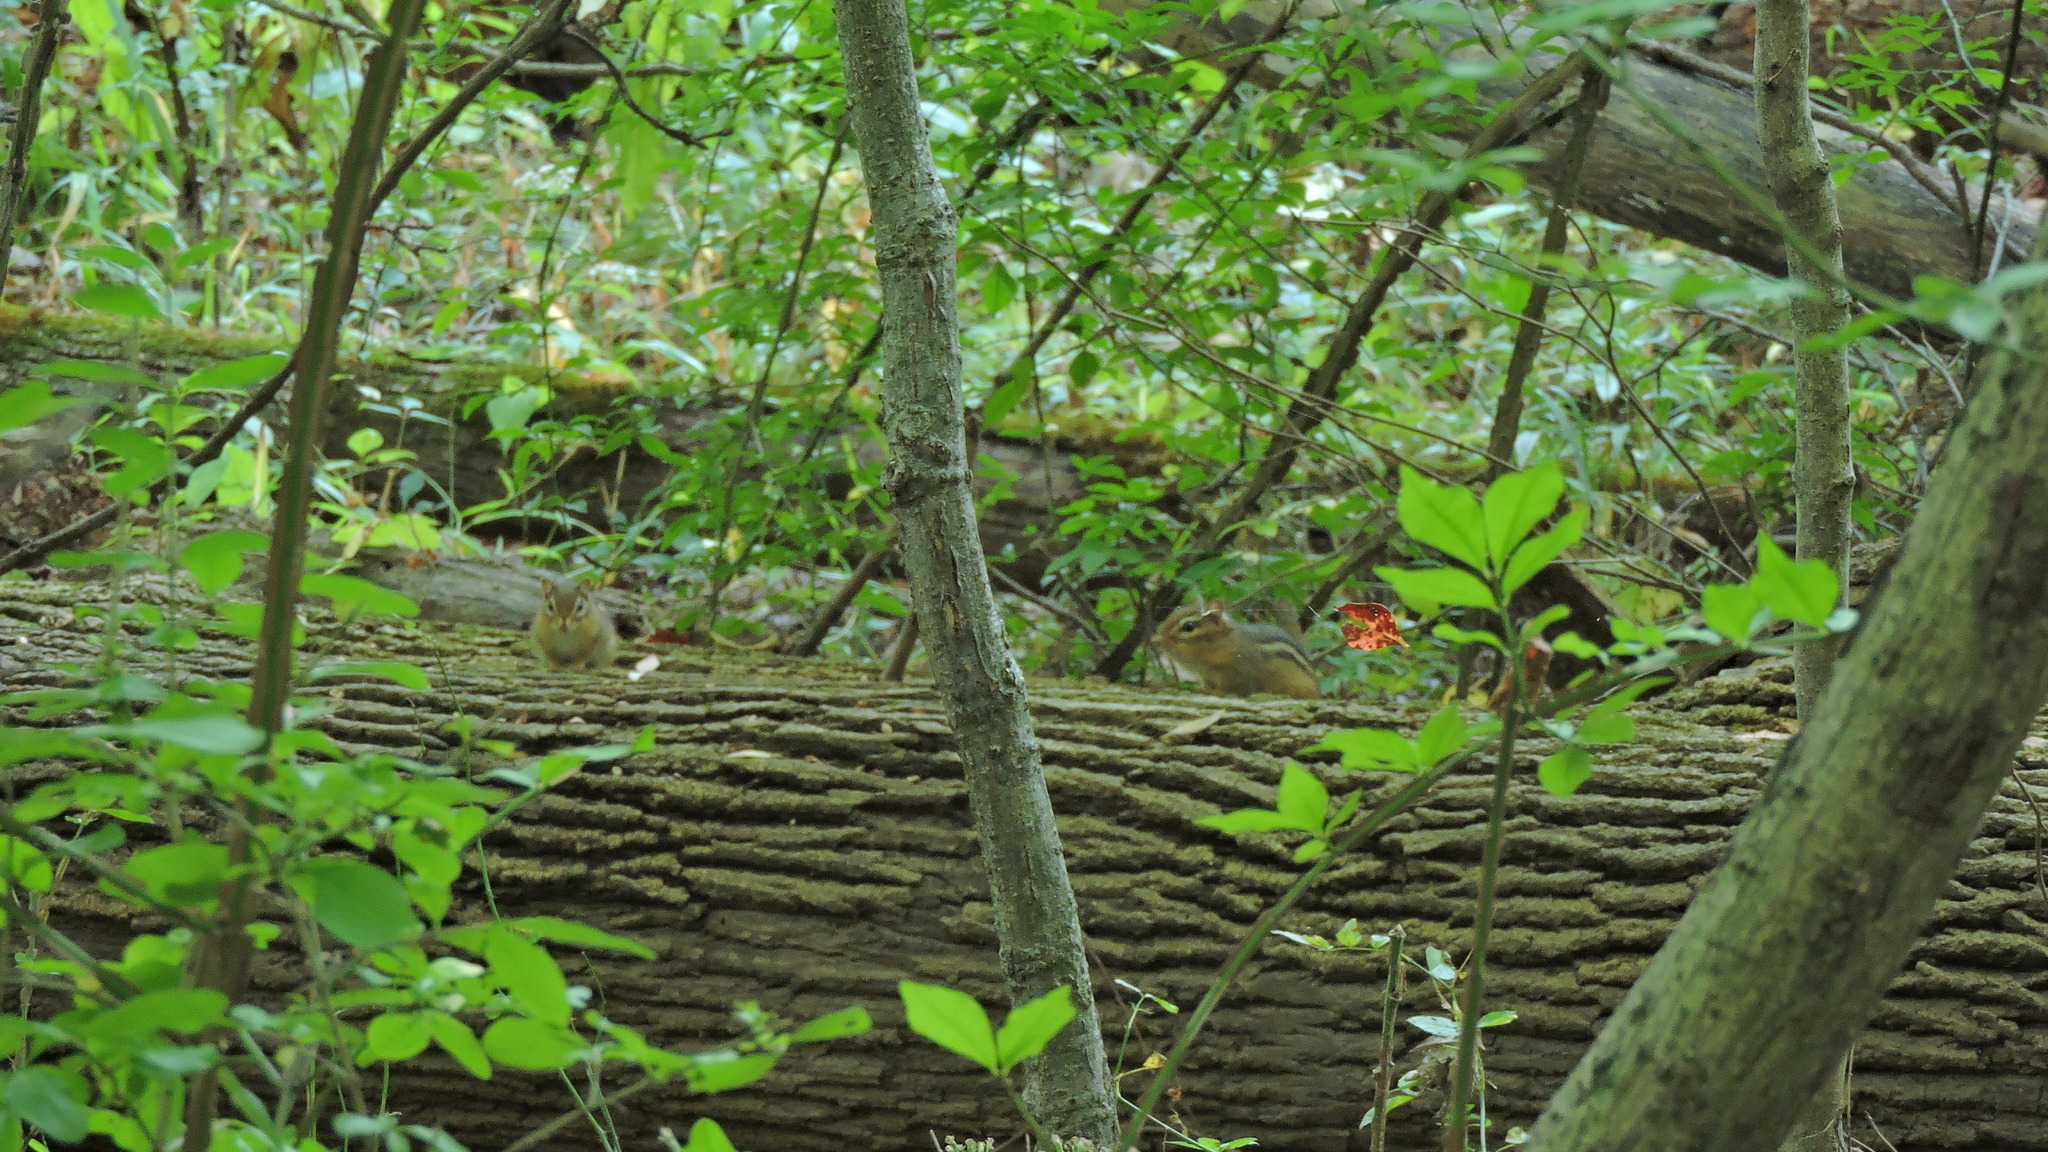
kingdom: Animalia
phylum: Chordata
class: Mammalia
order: Rodentia
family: Sciuridae
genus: Tamias
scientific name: Tamias striatus
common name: Eastern chipmunk
